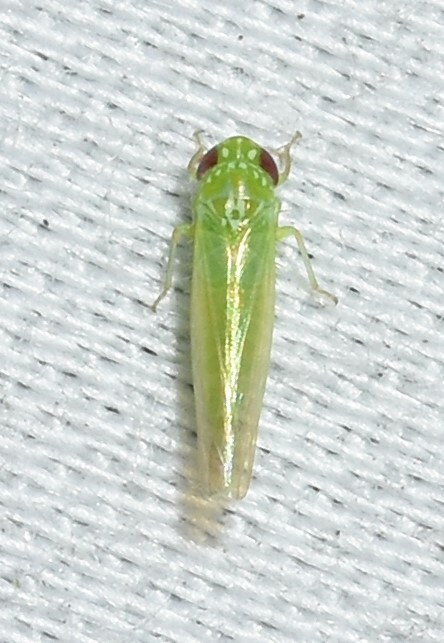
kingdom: Animalia
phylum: Arthropoda
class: Insecta
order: Hemiptera
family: Cicadellidae
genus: Empoasca
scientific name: Empoasca fabae
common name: Potato leafhopper
